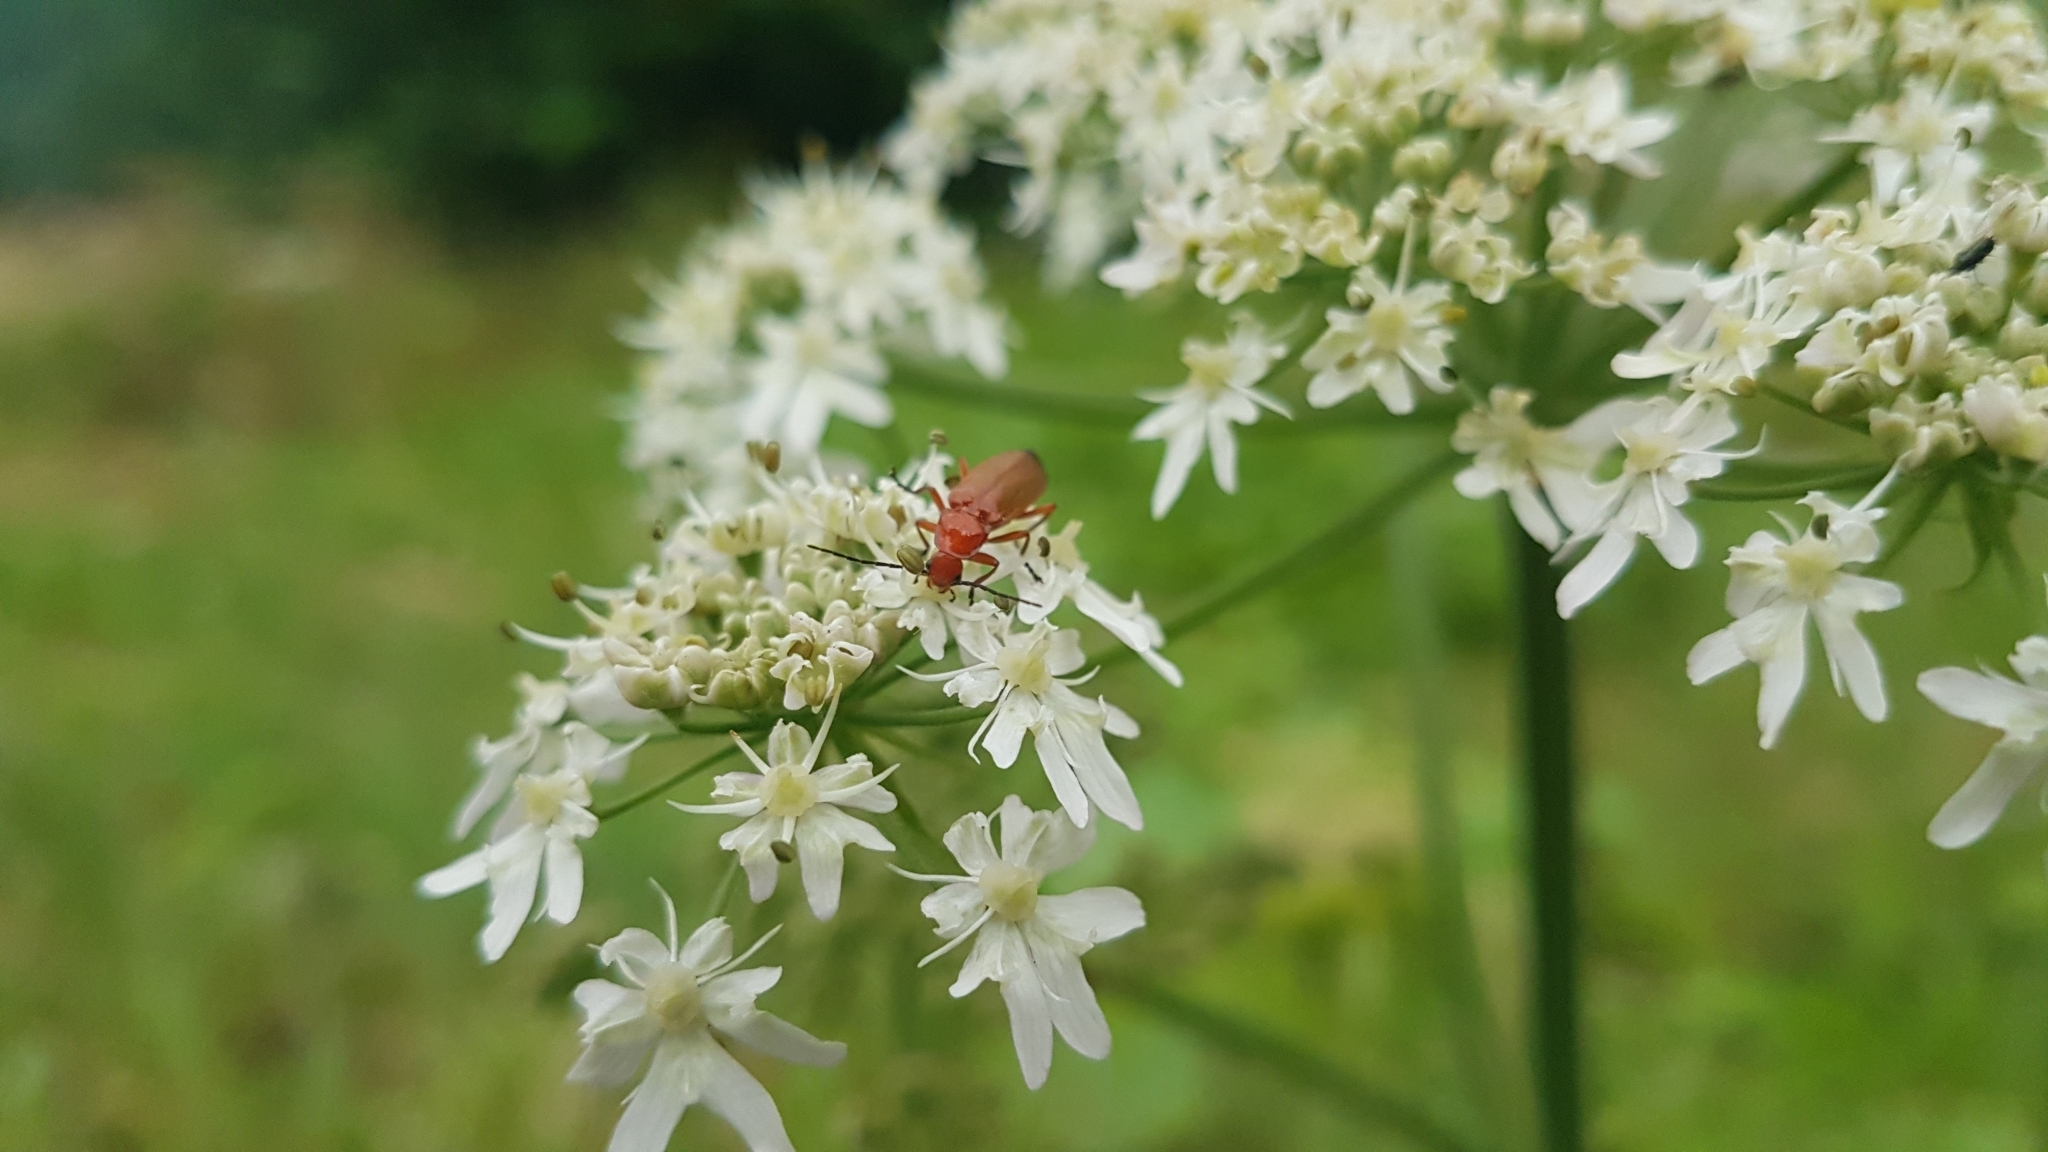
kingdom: Animalia
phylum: Arthropoda
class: Insecta
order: Coleoptera
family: Cantharidae
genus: Rhagonycha
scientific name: Rhagonycha fulva
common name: Common red soldier beetle
